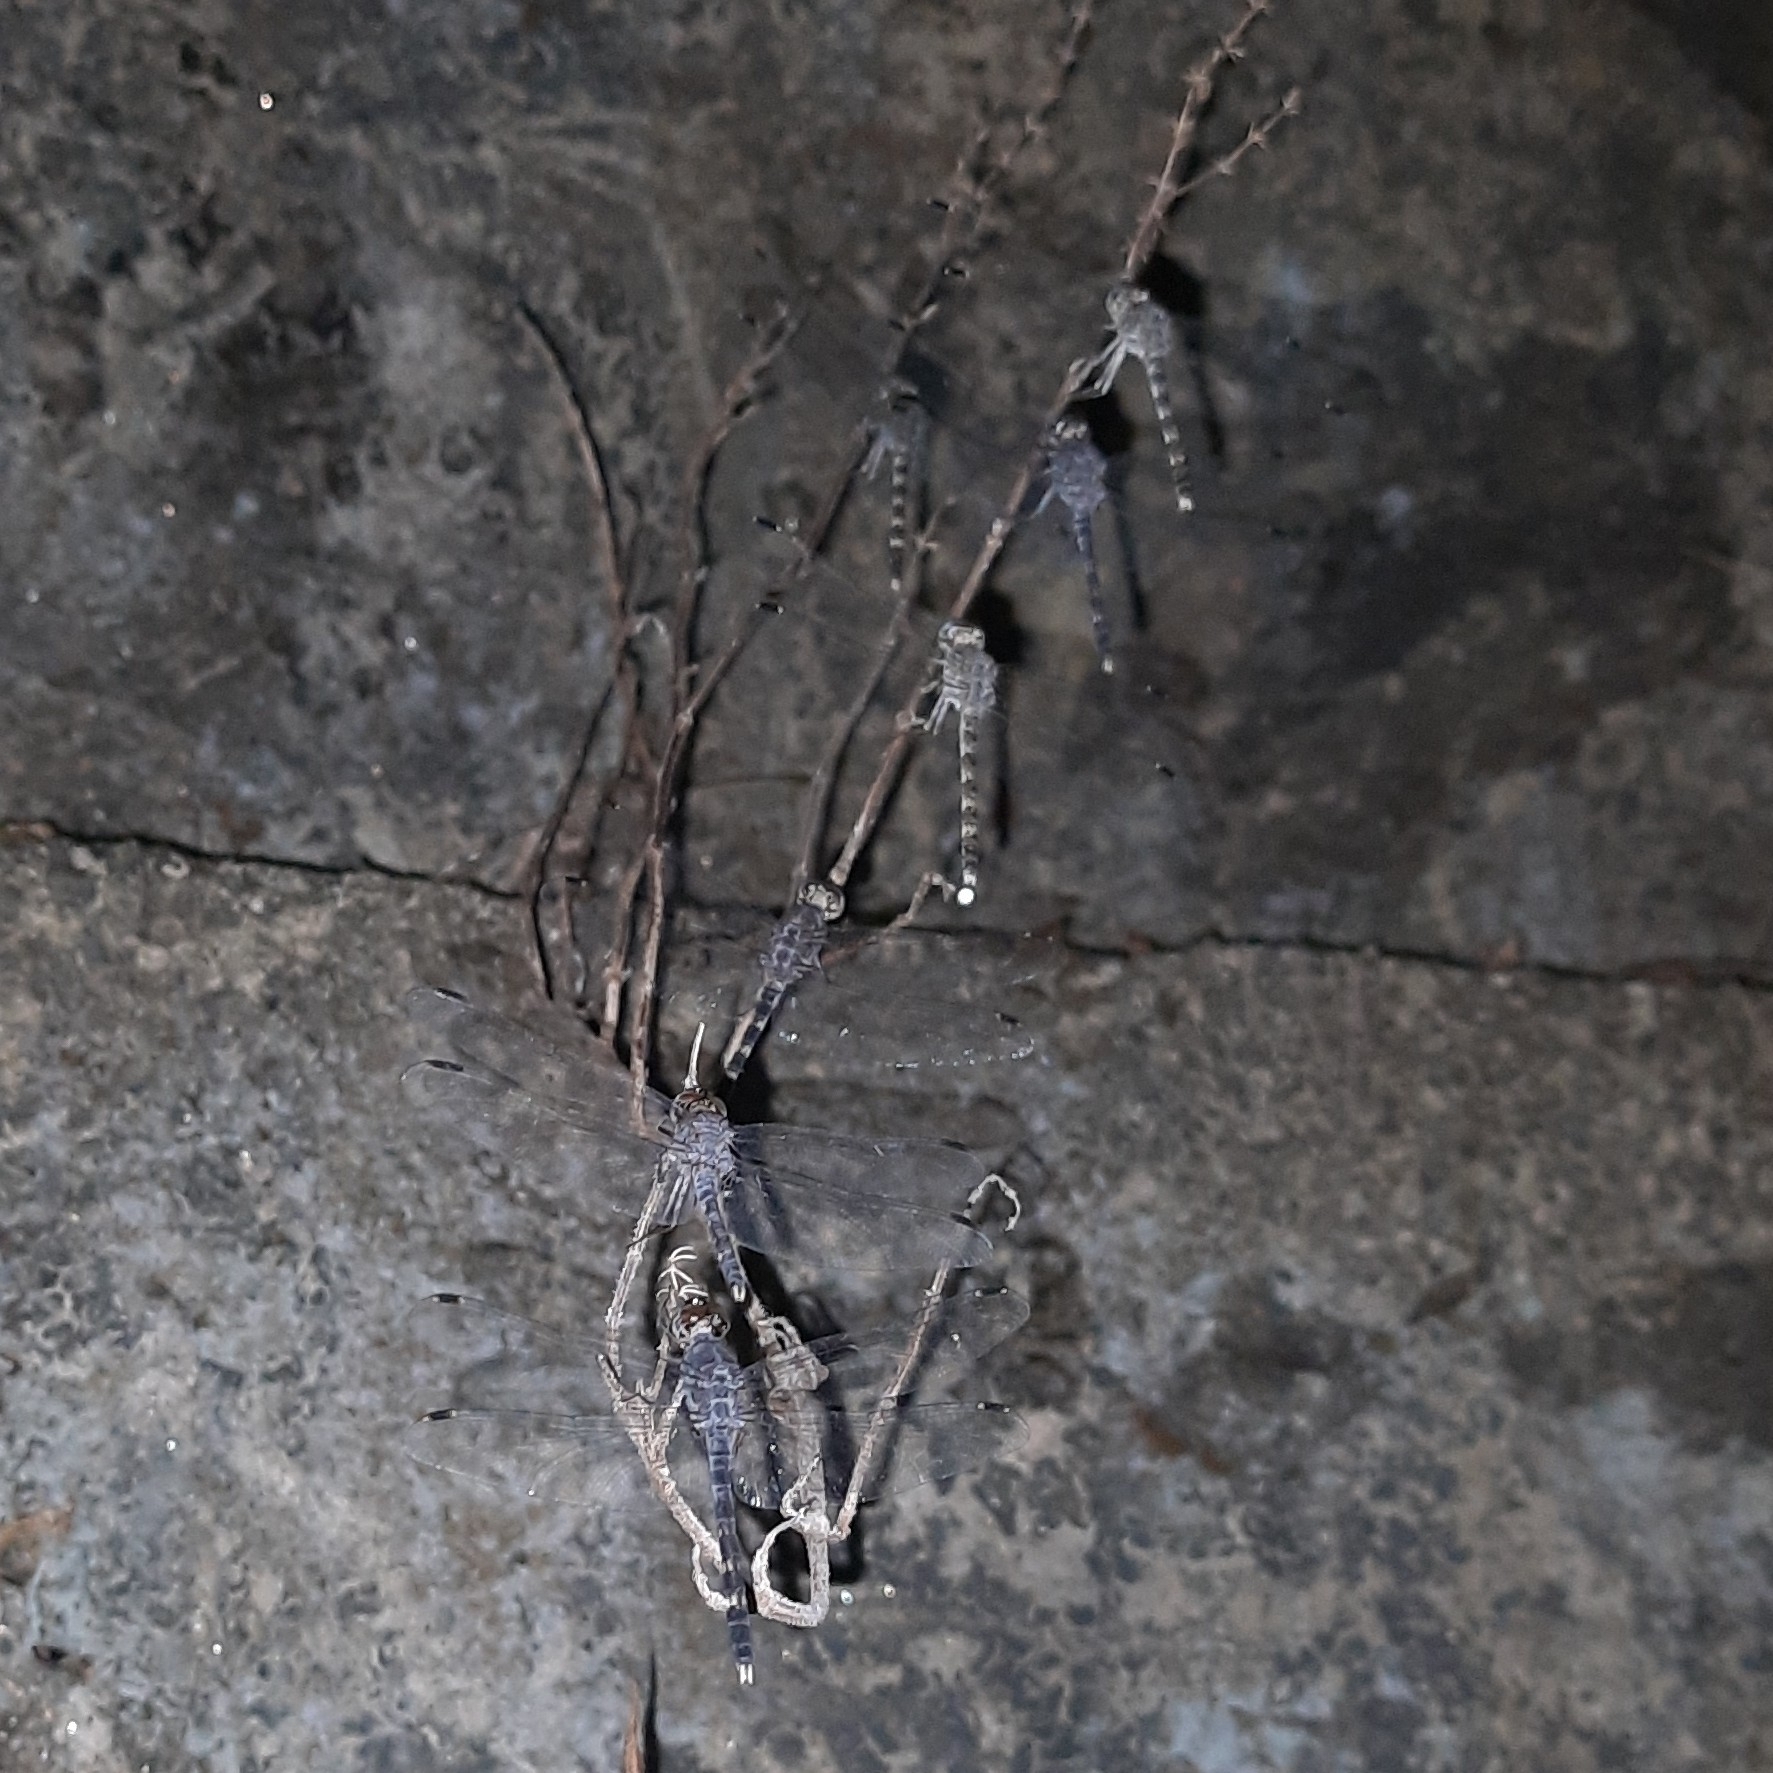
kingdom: Animalia
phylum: Arthropoda
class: Insecta
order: Odonata
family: Libellulidae
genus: Bradinopyga
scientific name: Bradinopyga geminata
